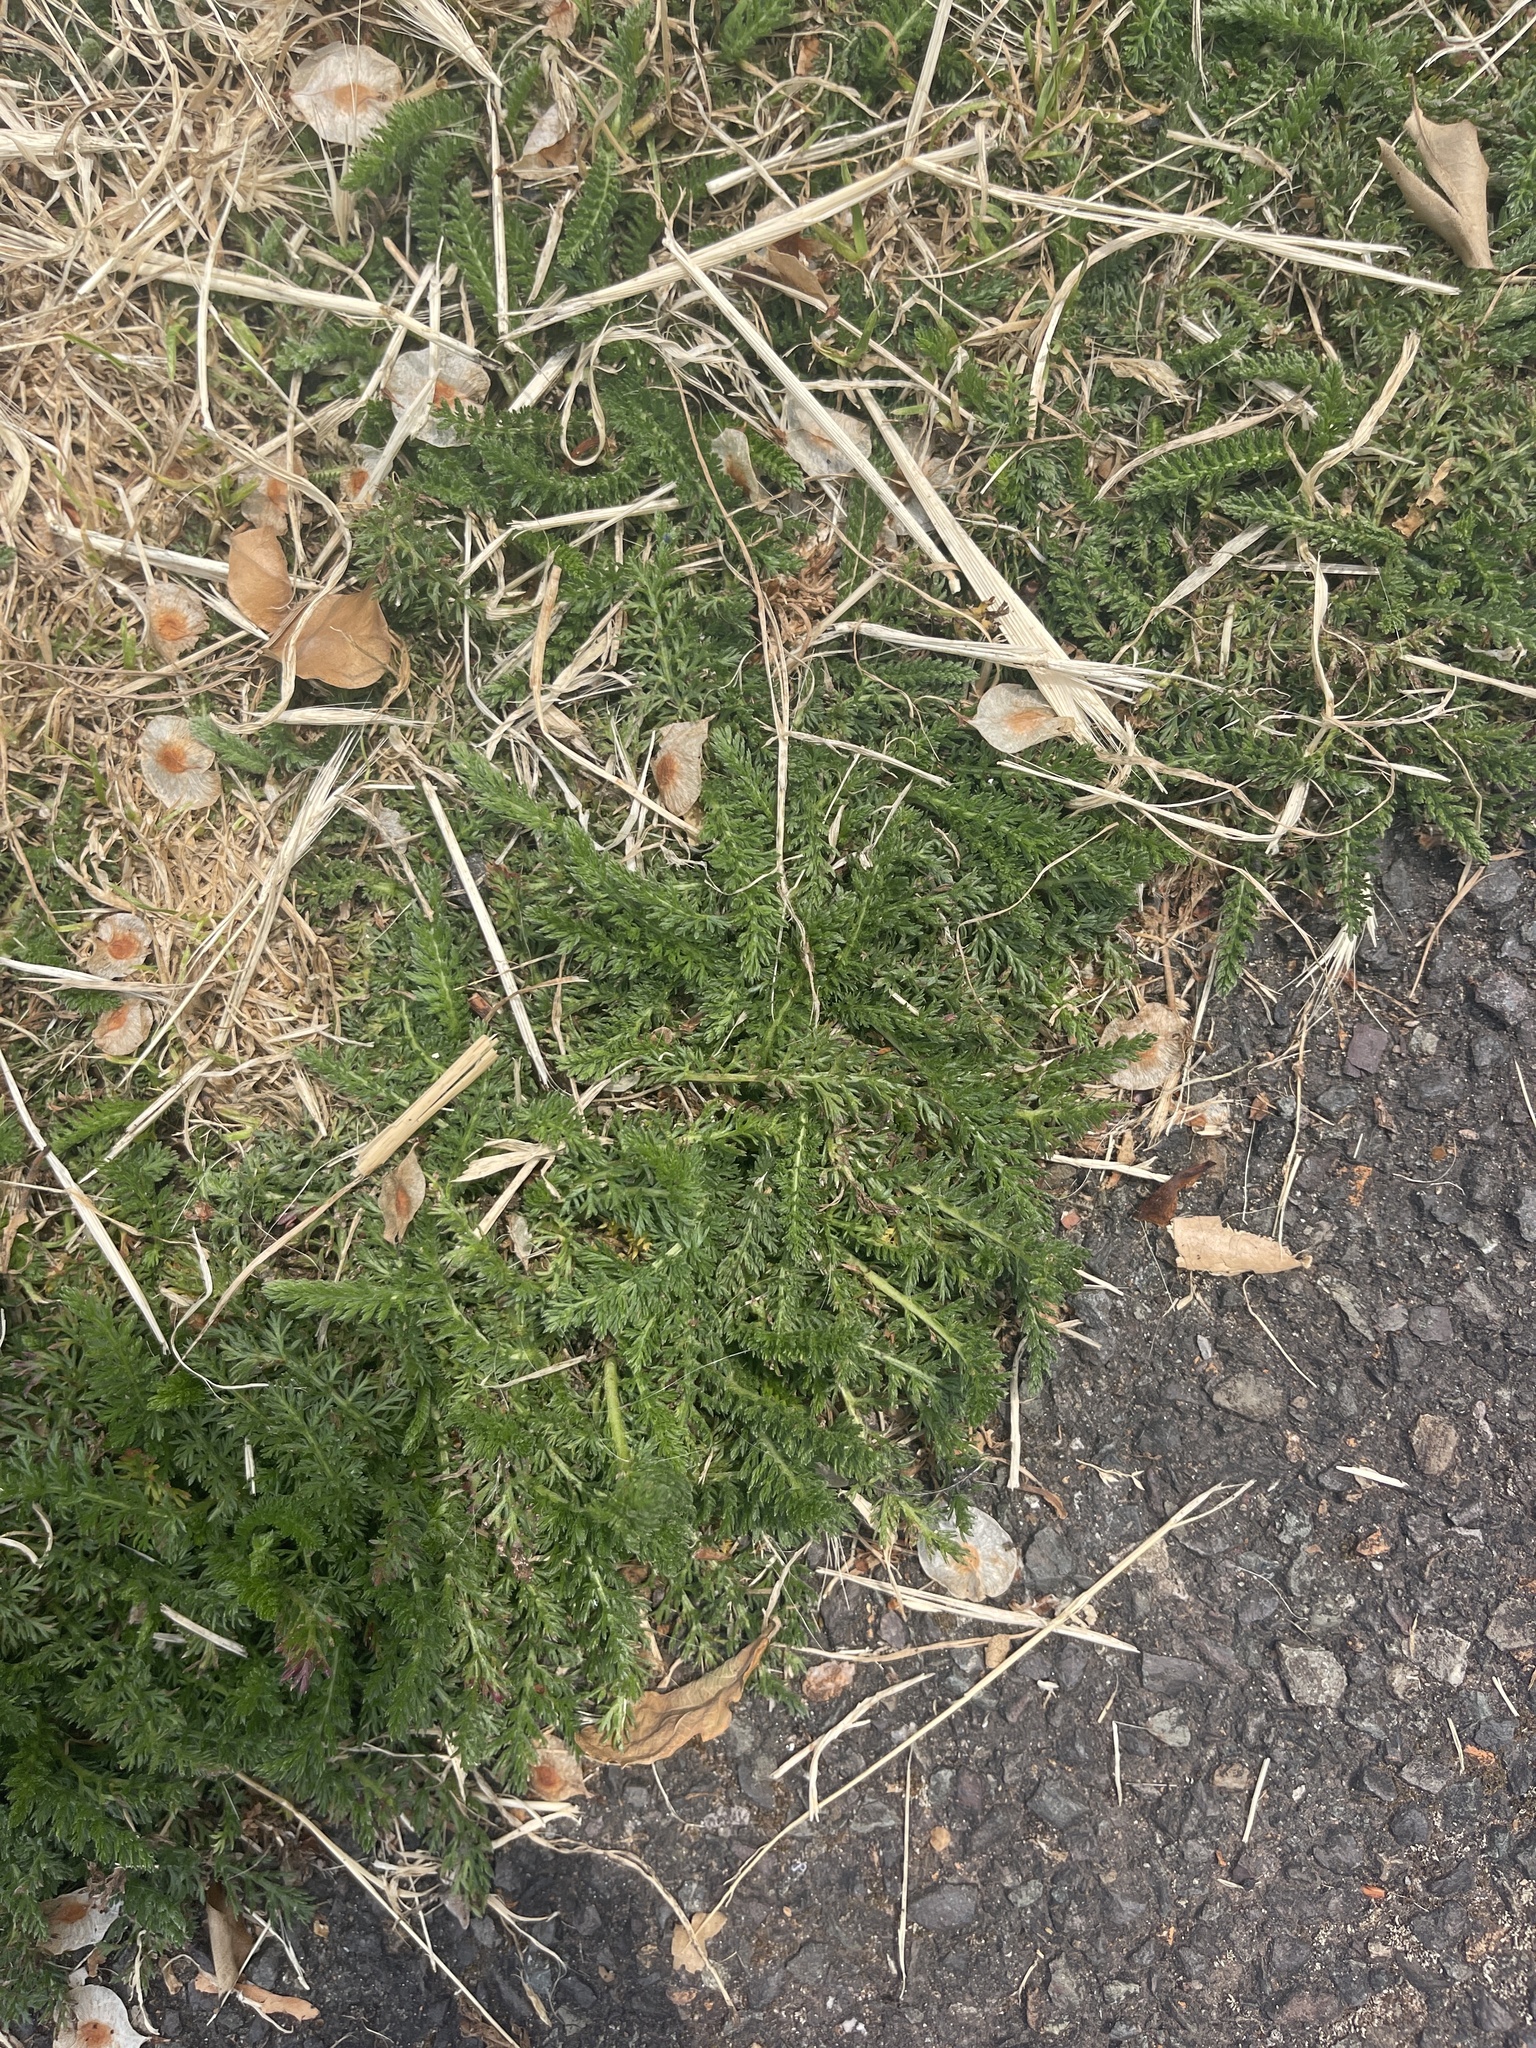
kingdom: Plantae
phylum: Tracheophyta
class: Magnoliopsida
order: Asterales
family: Asteraceae
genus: Achillea
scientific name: Achillea millefolium
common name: Yarrow
